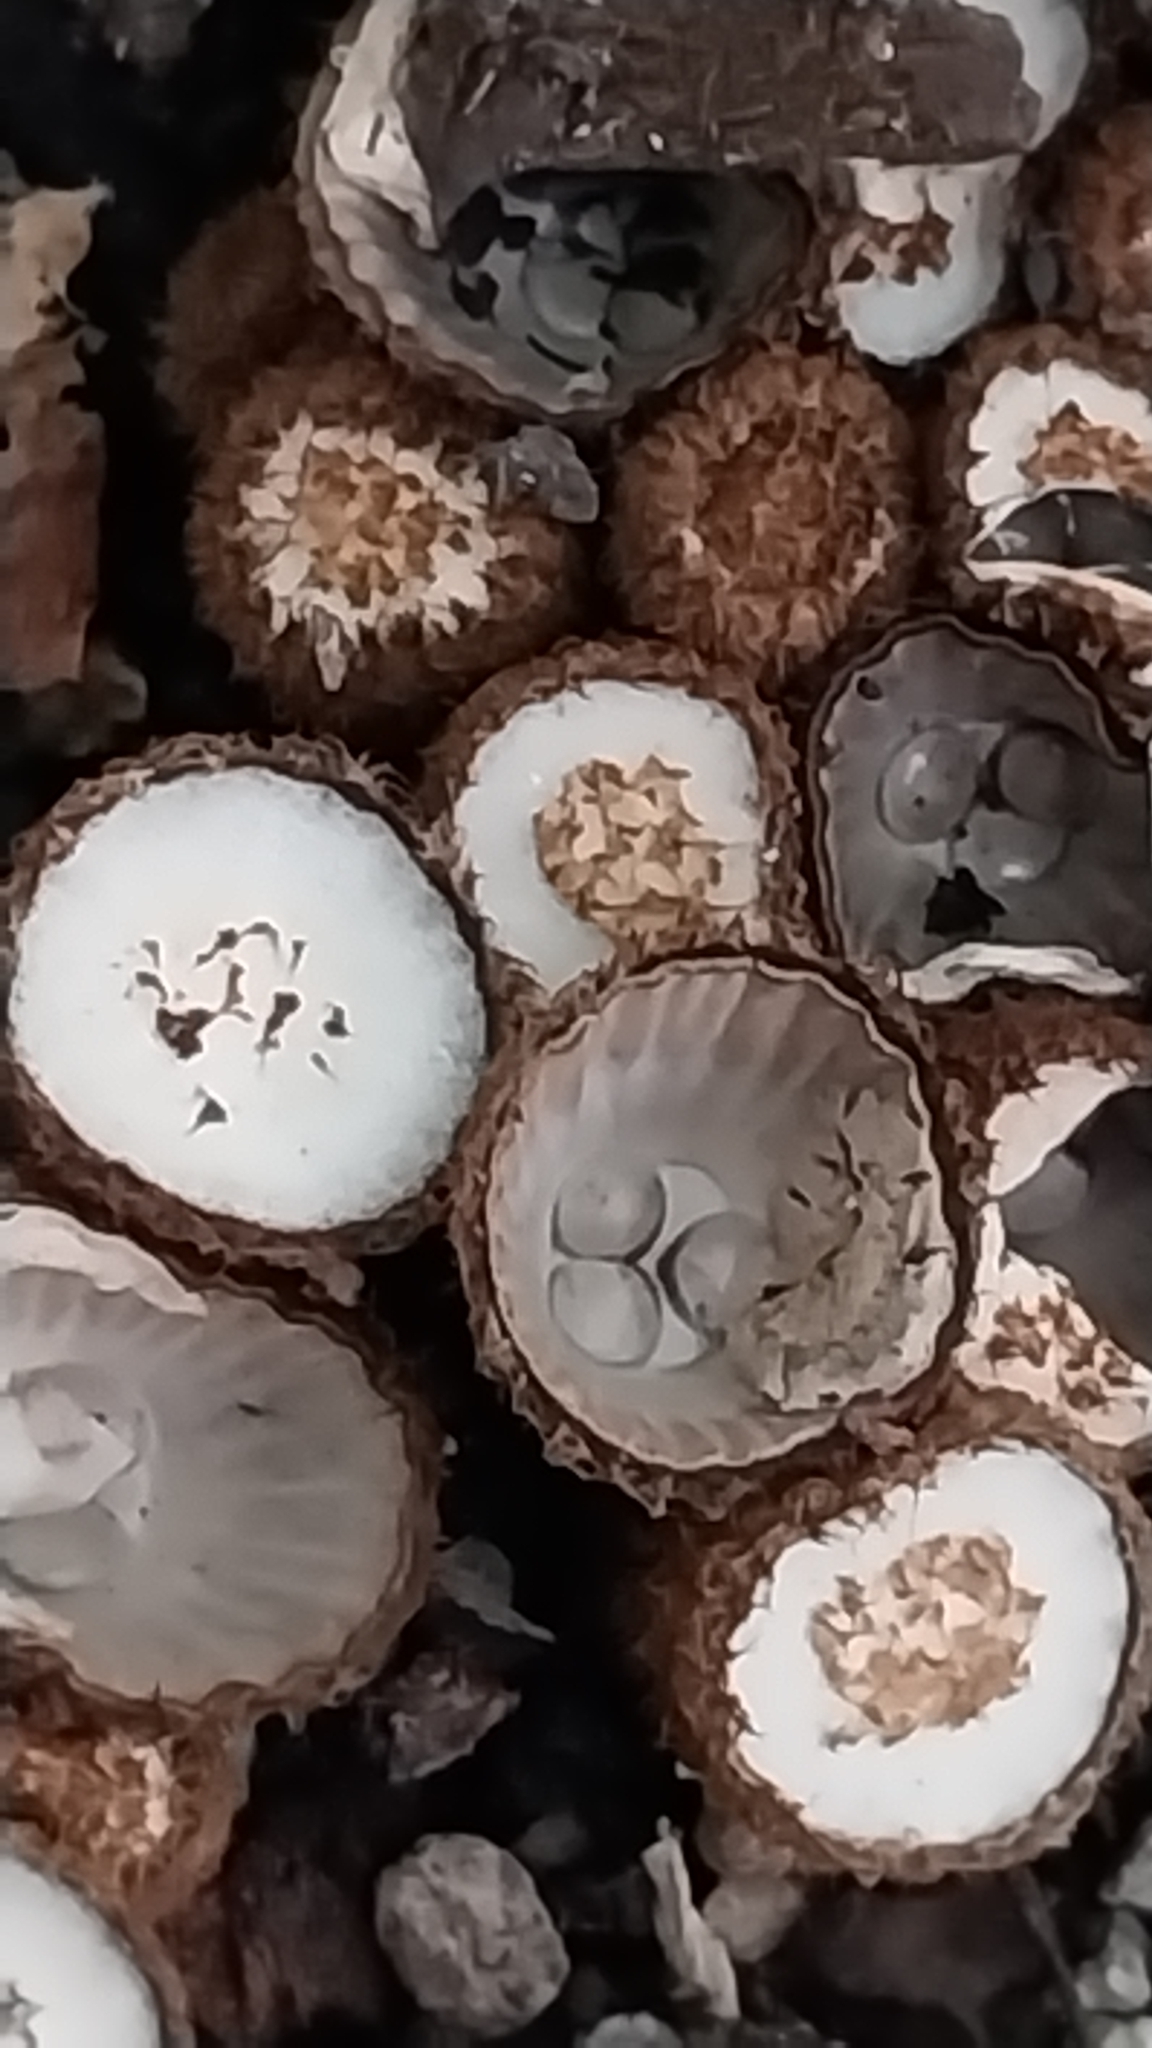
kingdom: Fungi
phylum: Basidiomycota
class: Agaricomycetes
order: Agaricales
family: Agaricaceae
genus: Cyathus
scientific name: Cyathus striatus
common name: Fluted bird's nest
